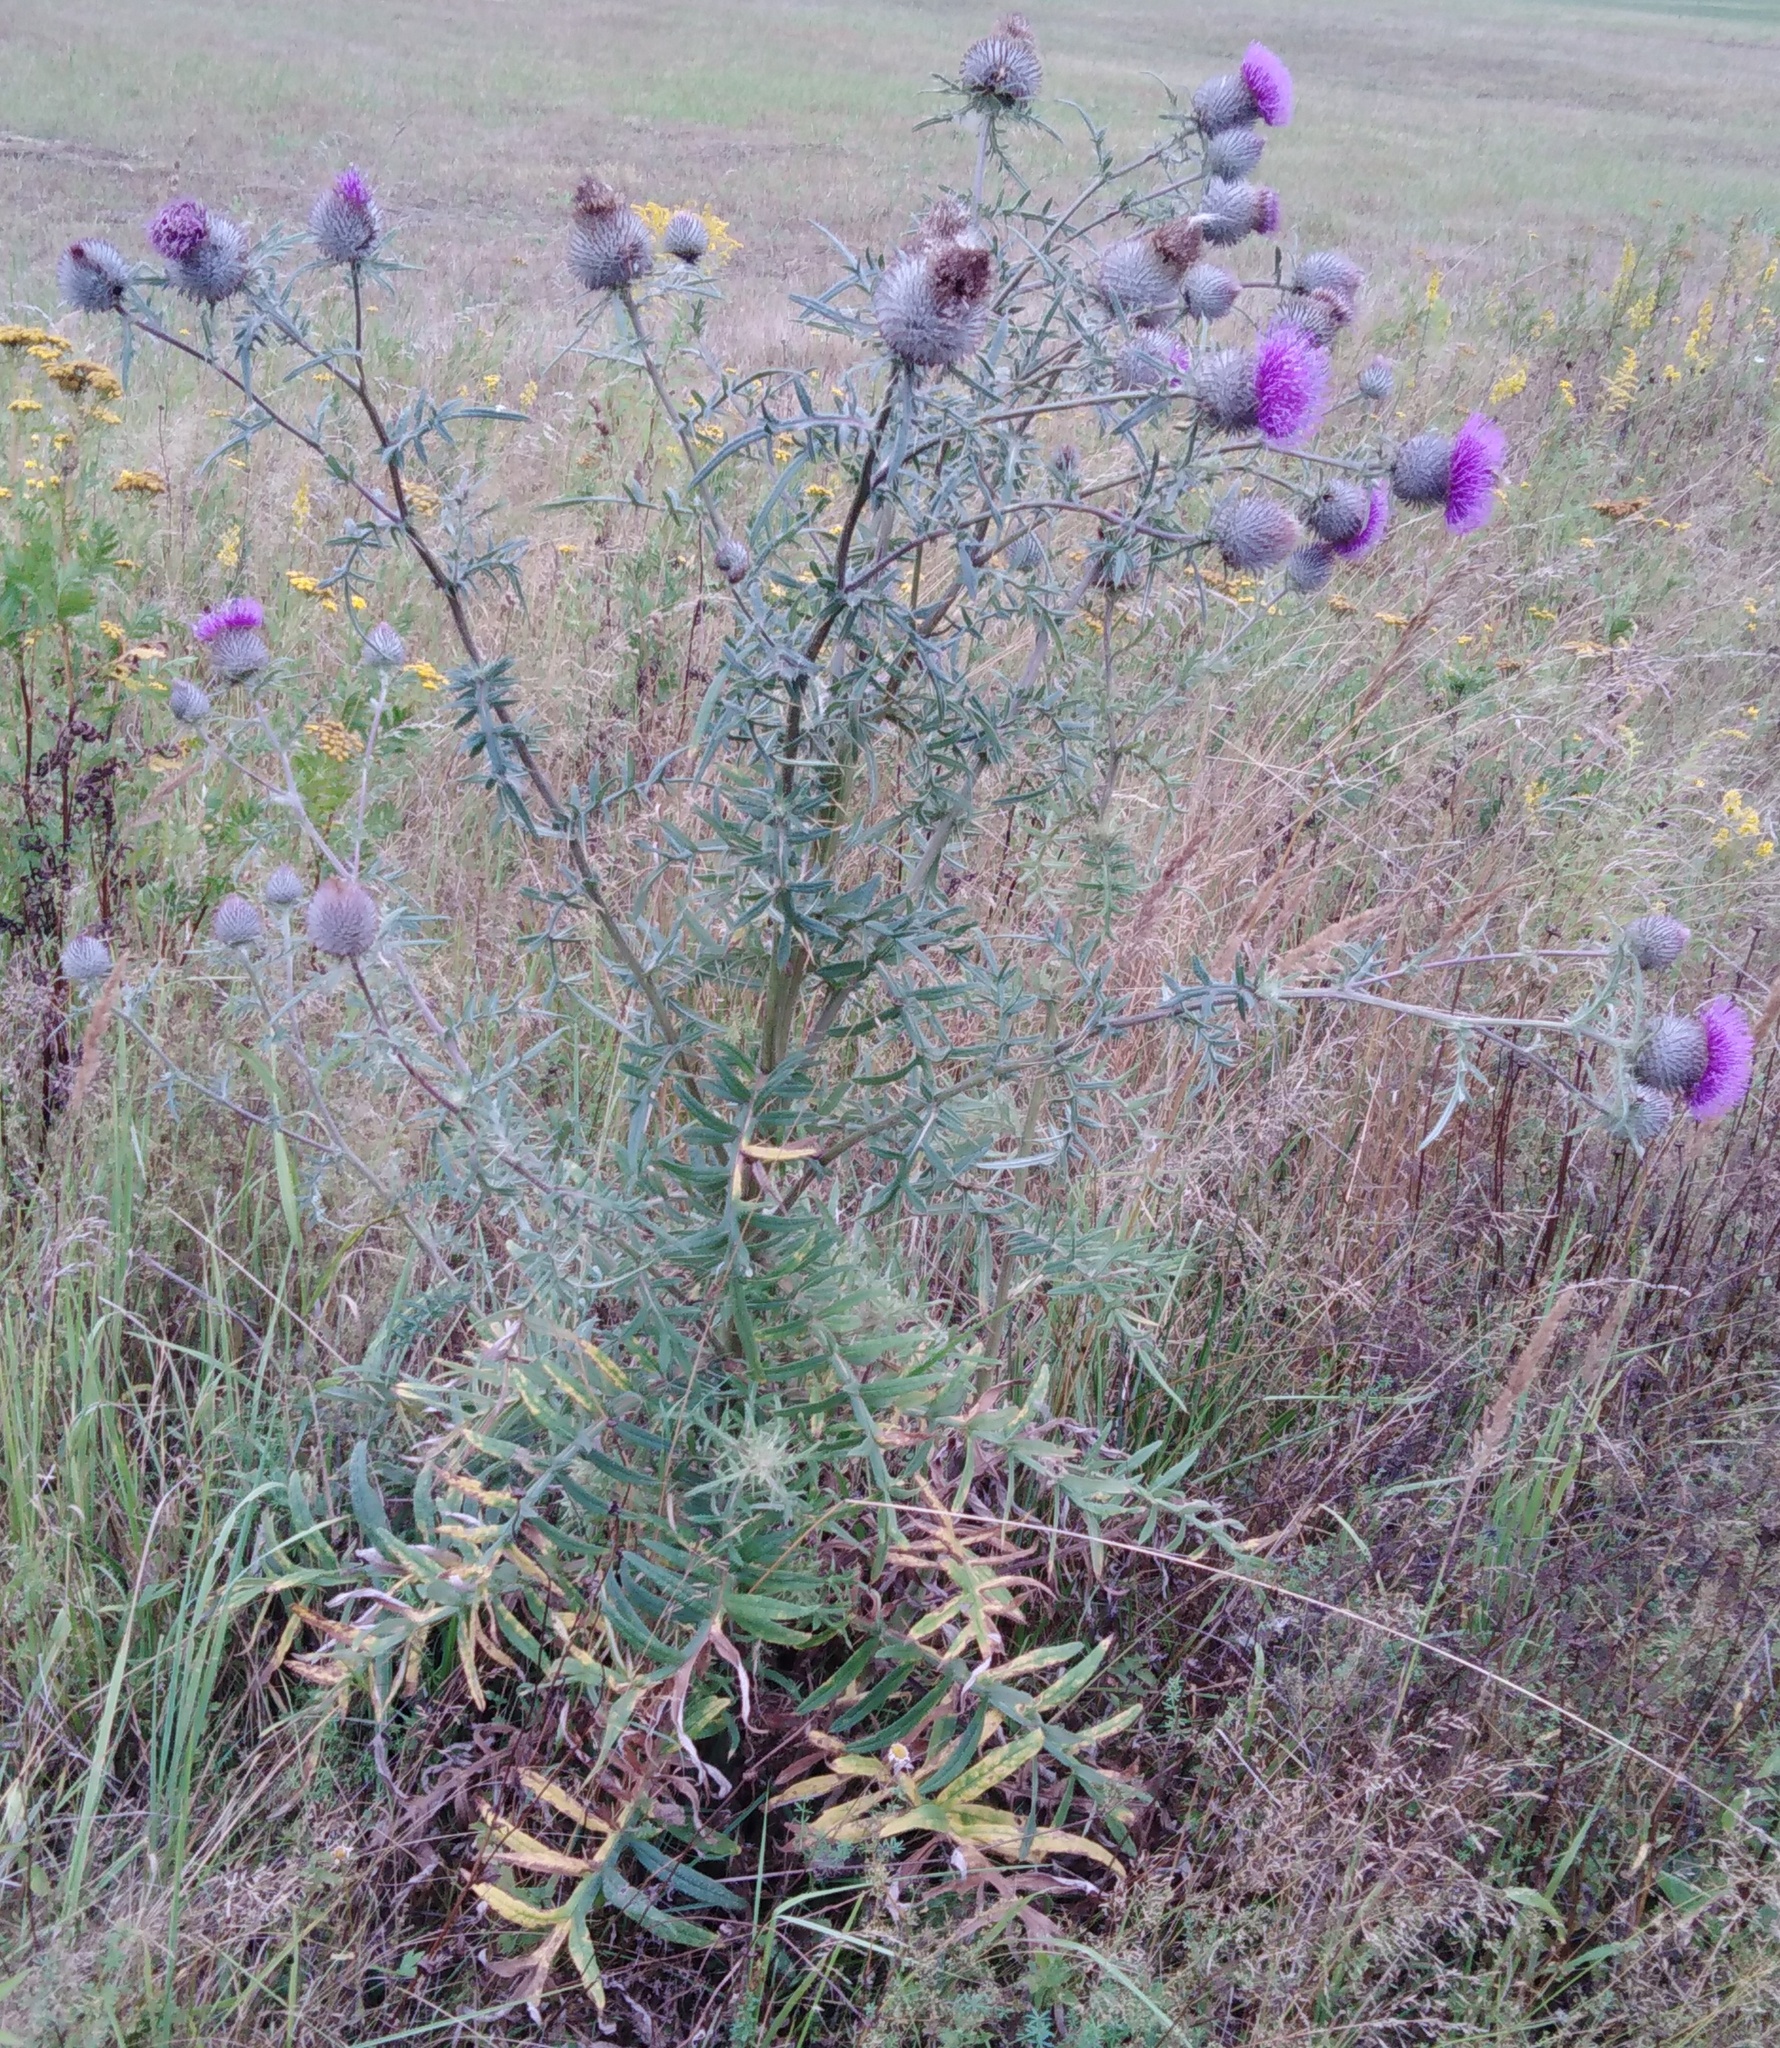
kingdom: Plantae
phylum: Tracheophyta
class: Magnoliopsida
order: Asterales
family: Asteraceae
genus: Lophiolepis
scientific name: Lophiolepis decussata
